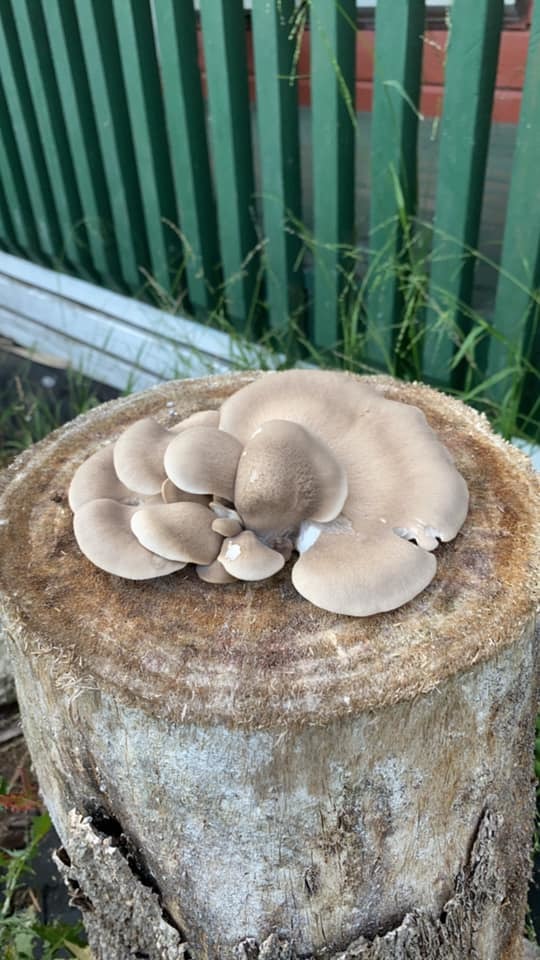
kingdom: Fungi
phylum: Basidiomycota
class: Agaricomycetes
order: Agaricales
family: Pleurotaceae
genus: Pleurotus
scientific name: Pleurotus parsonsiae
